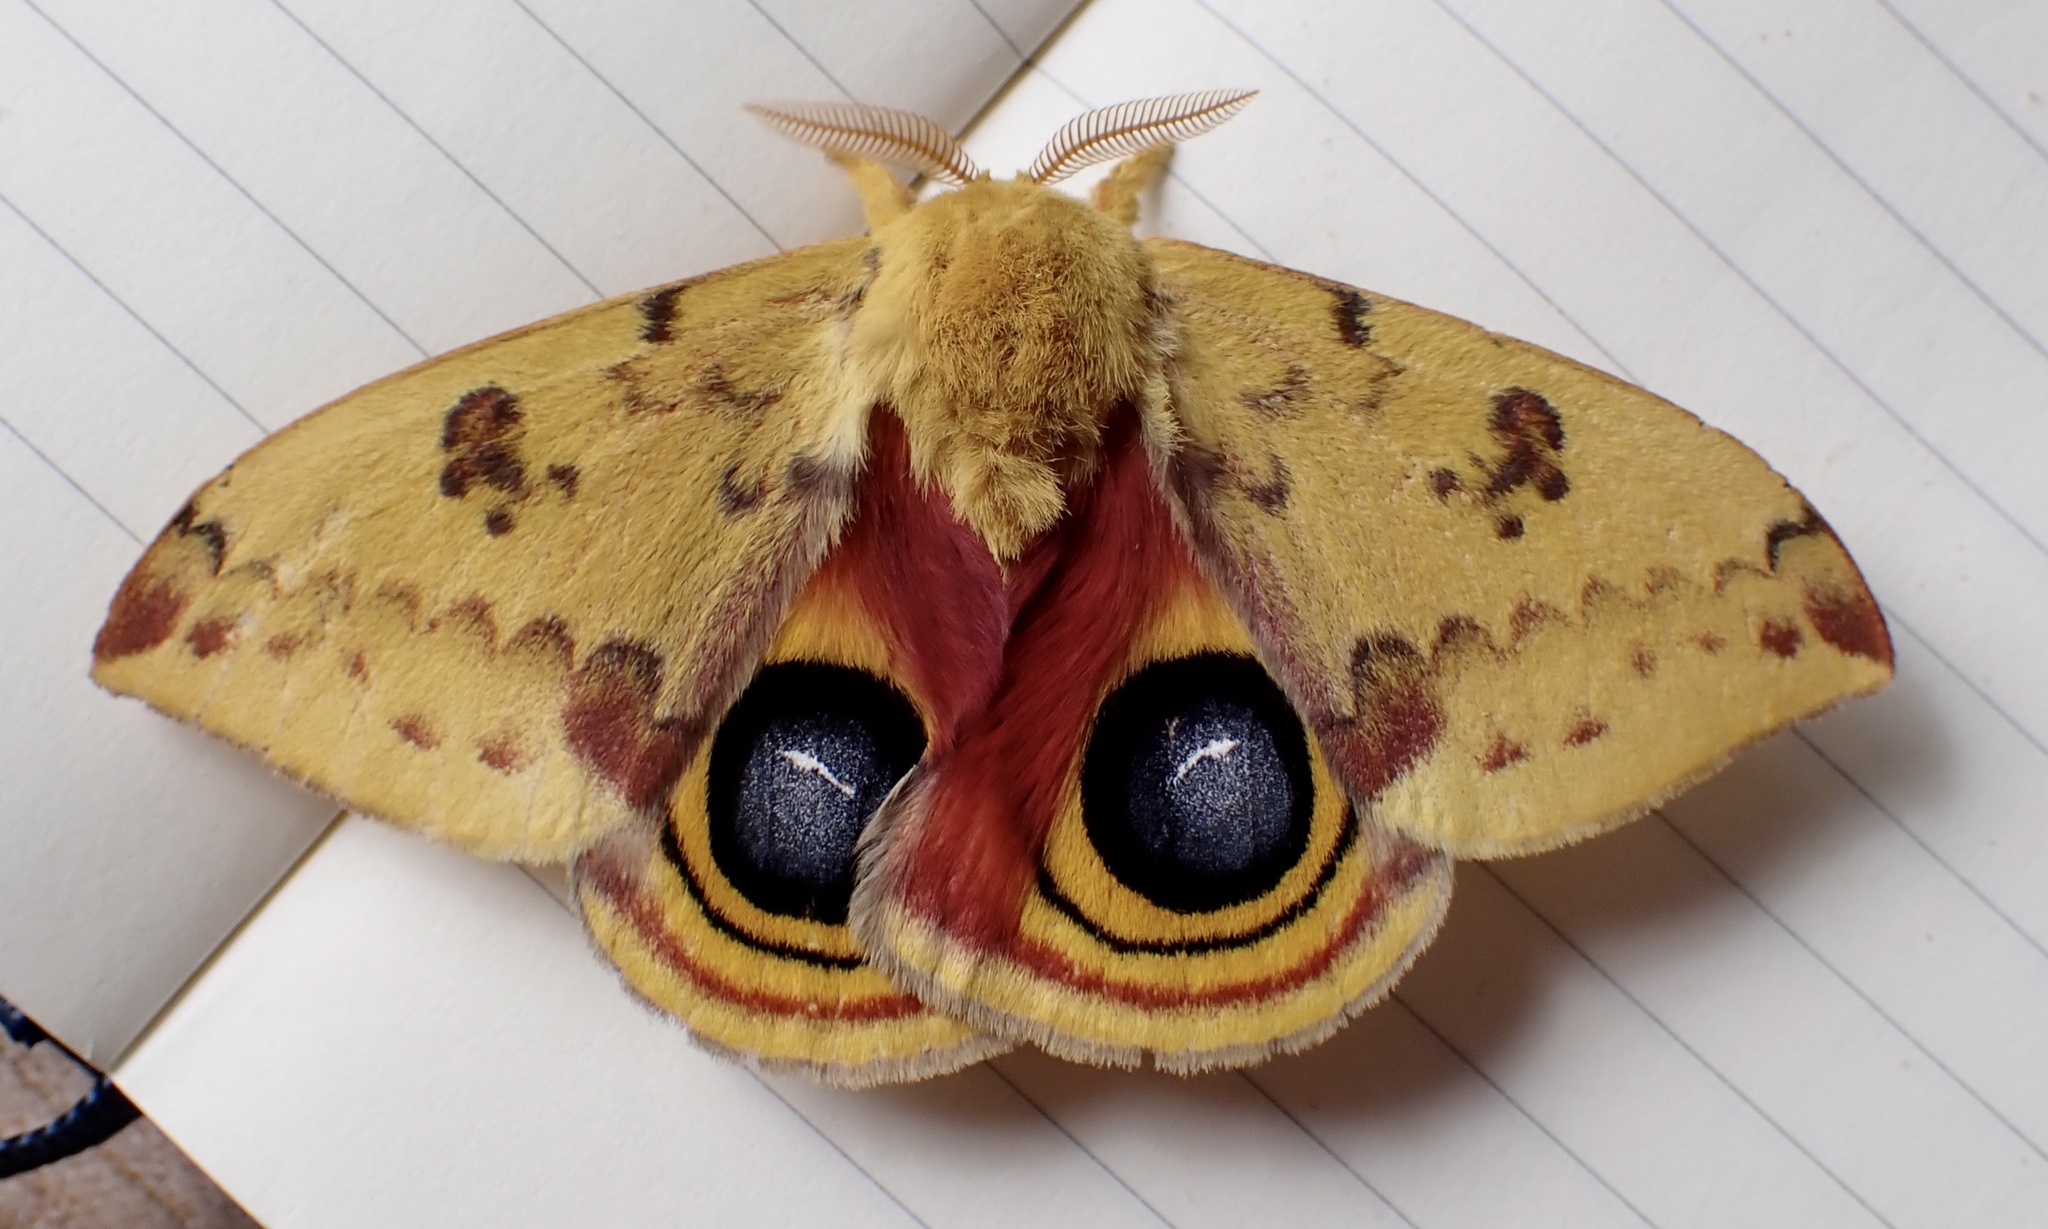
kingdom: Animalia
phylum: Arthropoda
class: Insecta
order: Lepidoptera
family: Saturniidae
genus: Automeris
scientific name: Automeris io
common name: Io moth
